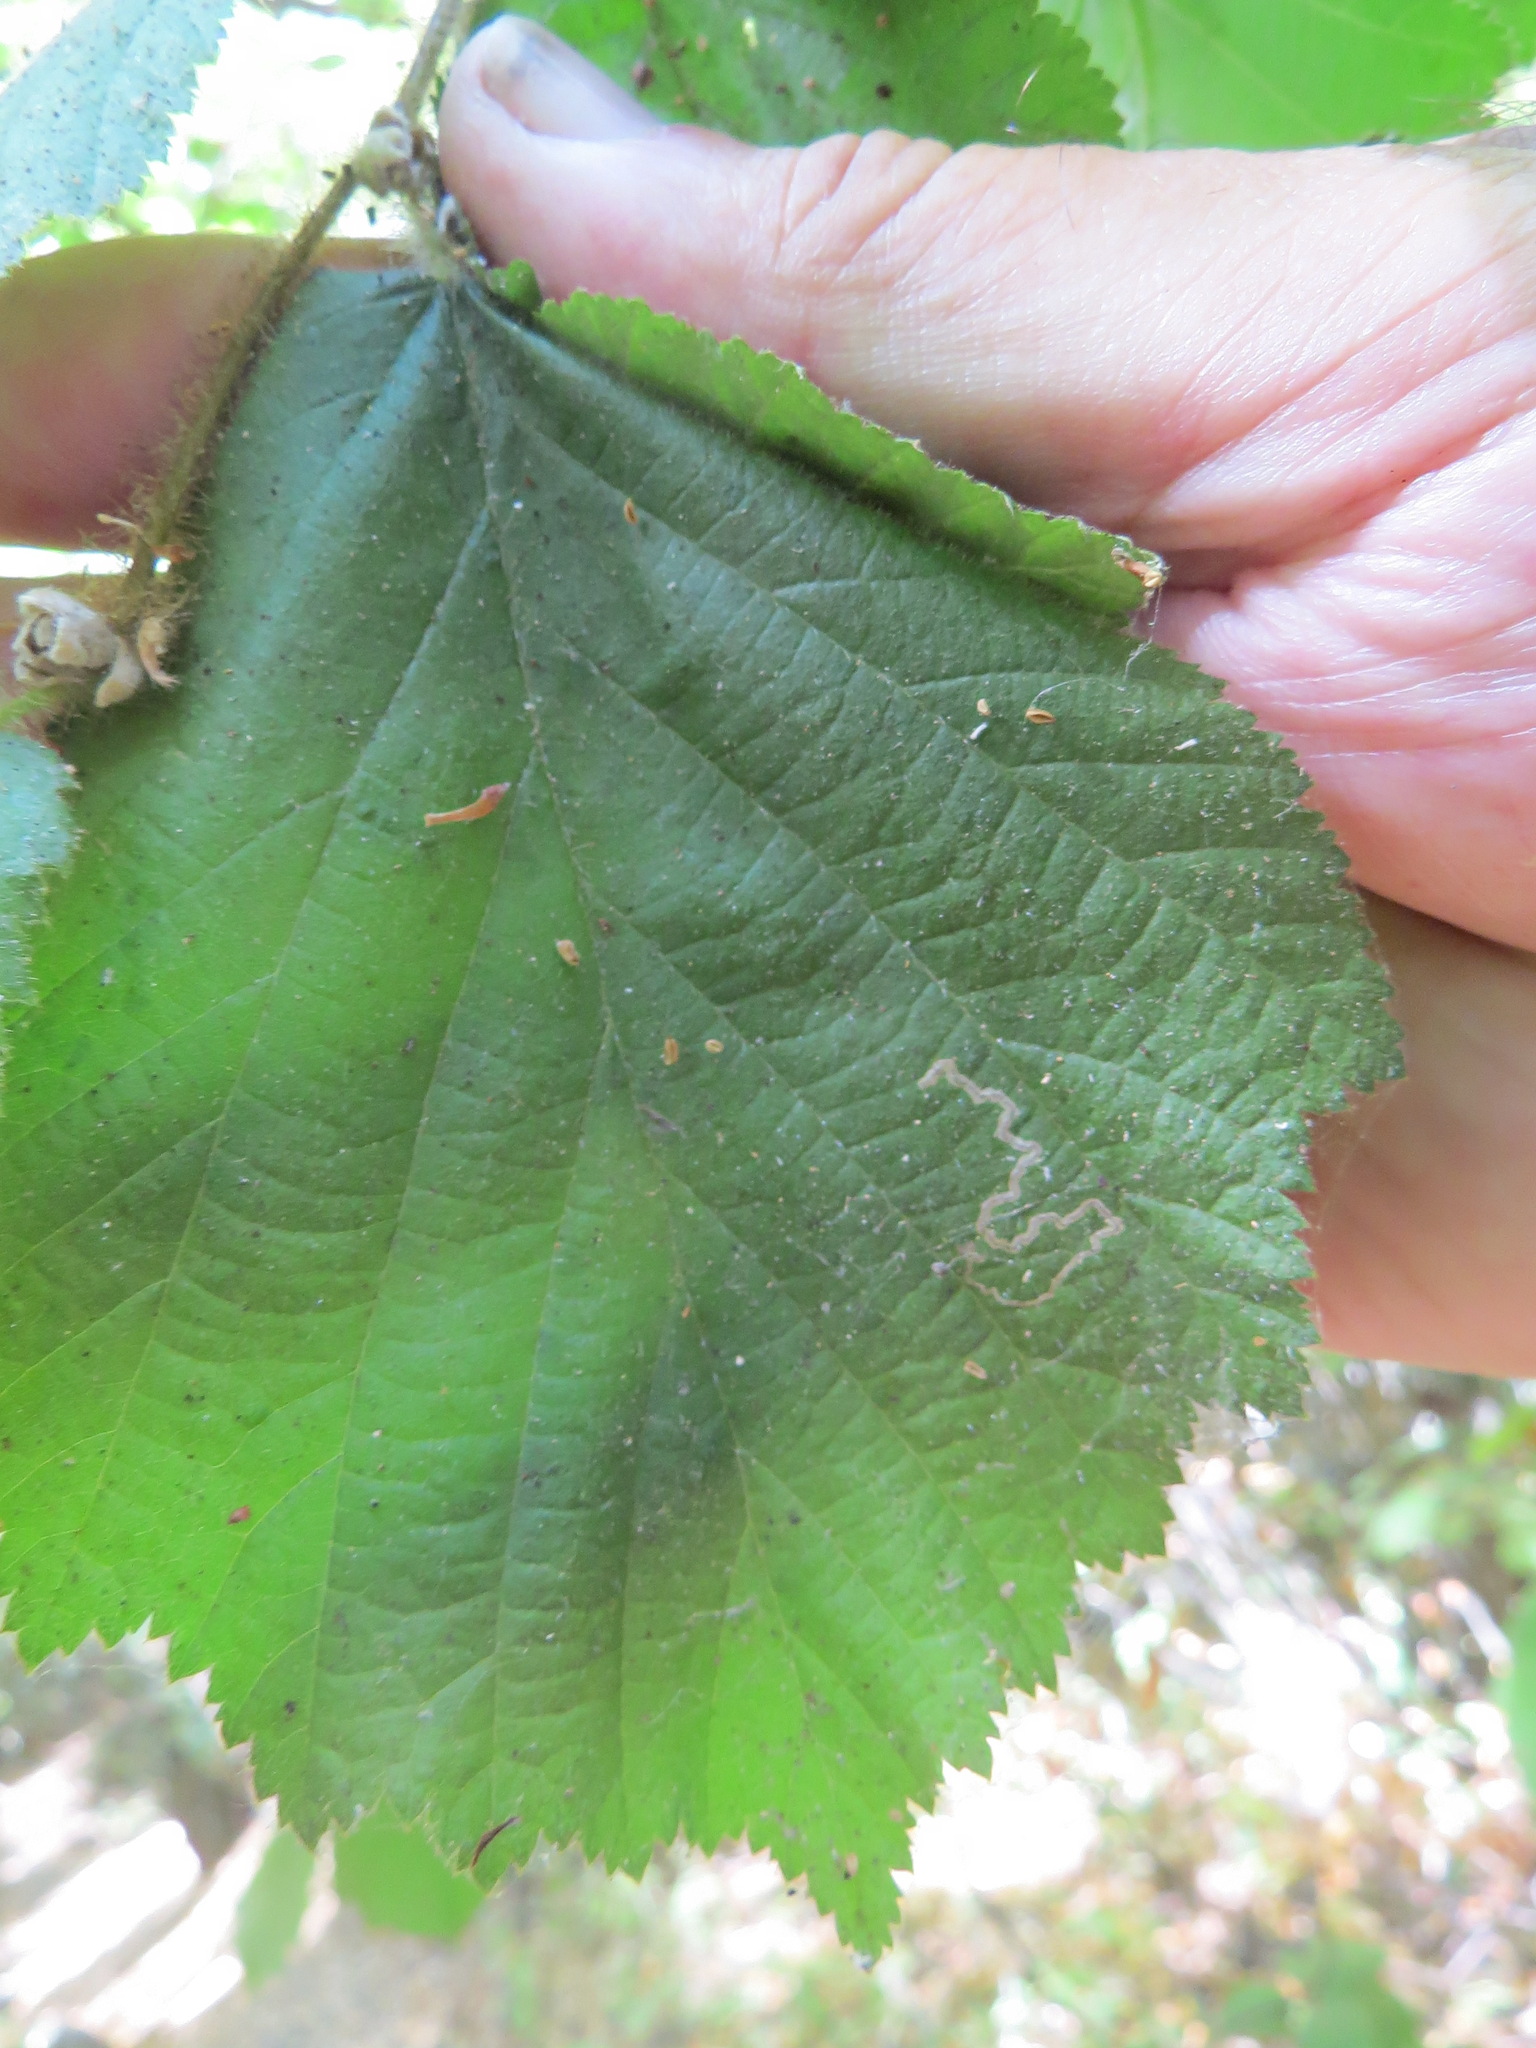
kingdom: Animalia
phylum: Arthropoda
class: Insecta
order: Lepidoptera
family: Nepticulidae
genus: Stigmella
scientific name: Stigmella microtheriella
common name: Nut-tree pigmy
